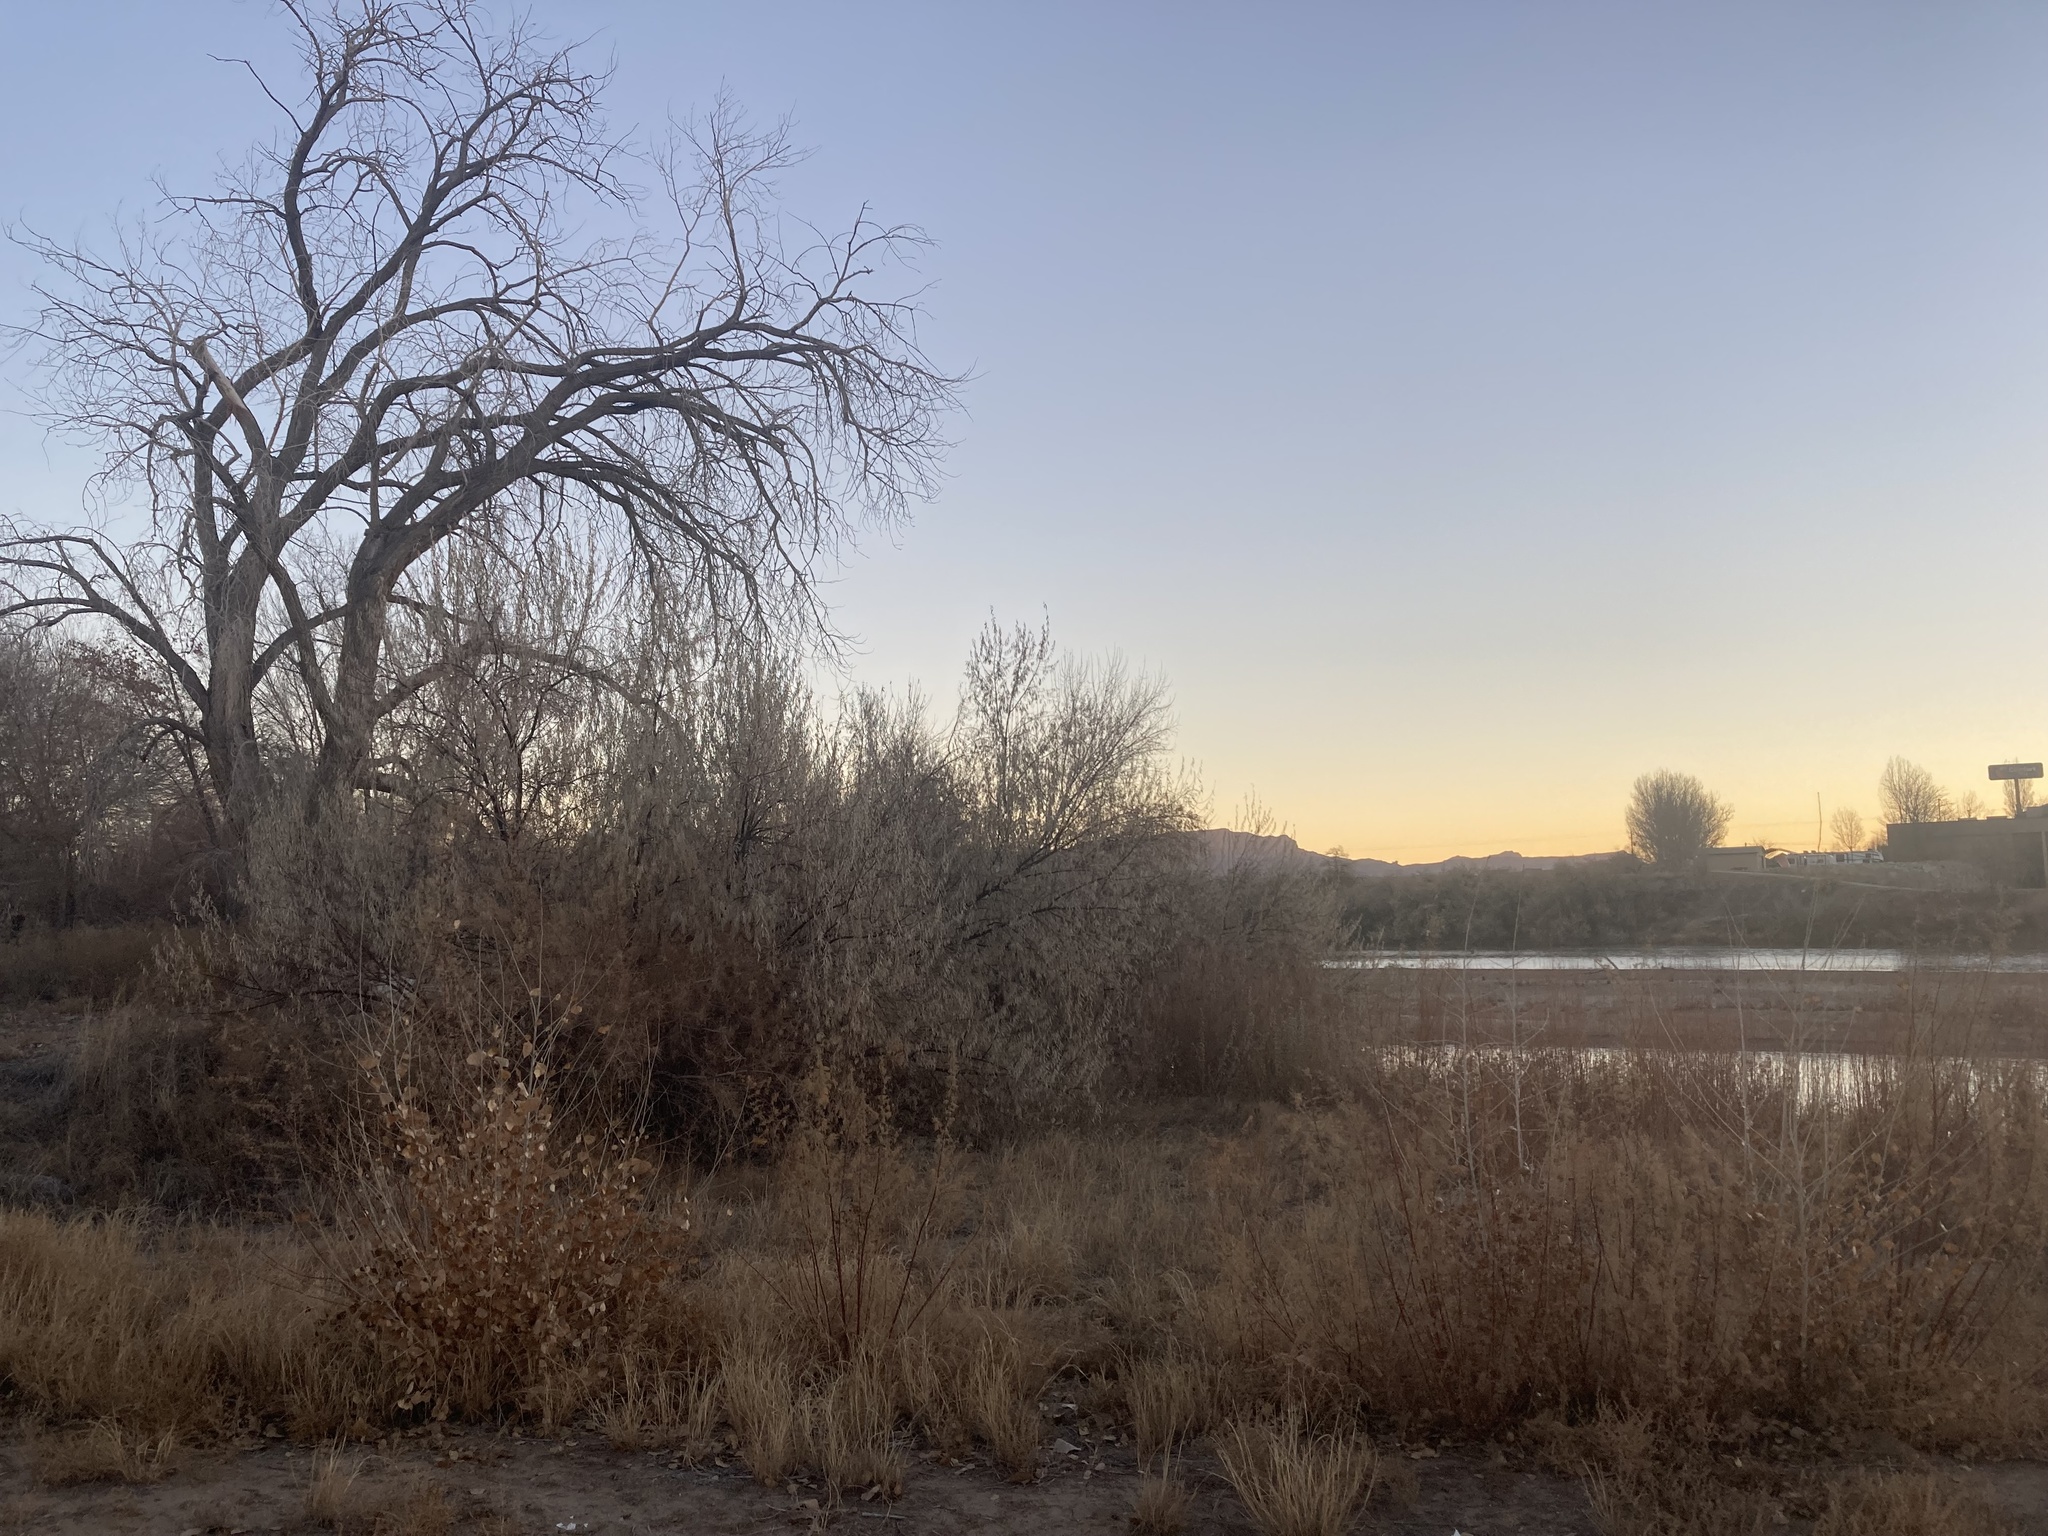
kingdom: Plantae
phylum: Tracheophyta
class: Magnoliopsida
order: Rosales
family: Elaeagnaceae
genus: Elaeagnus
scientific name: Elaeagnus angustifolia
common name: Russian olive
